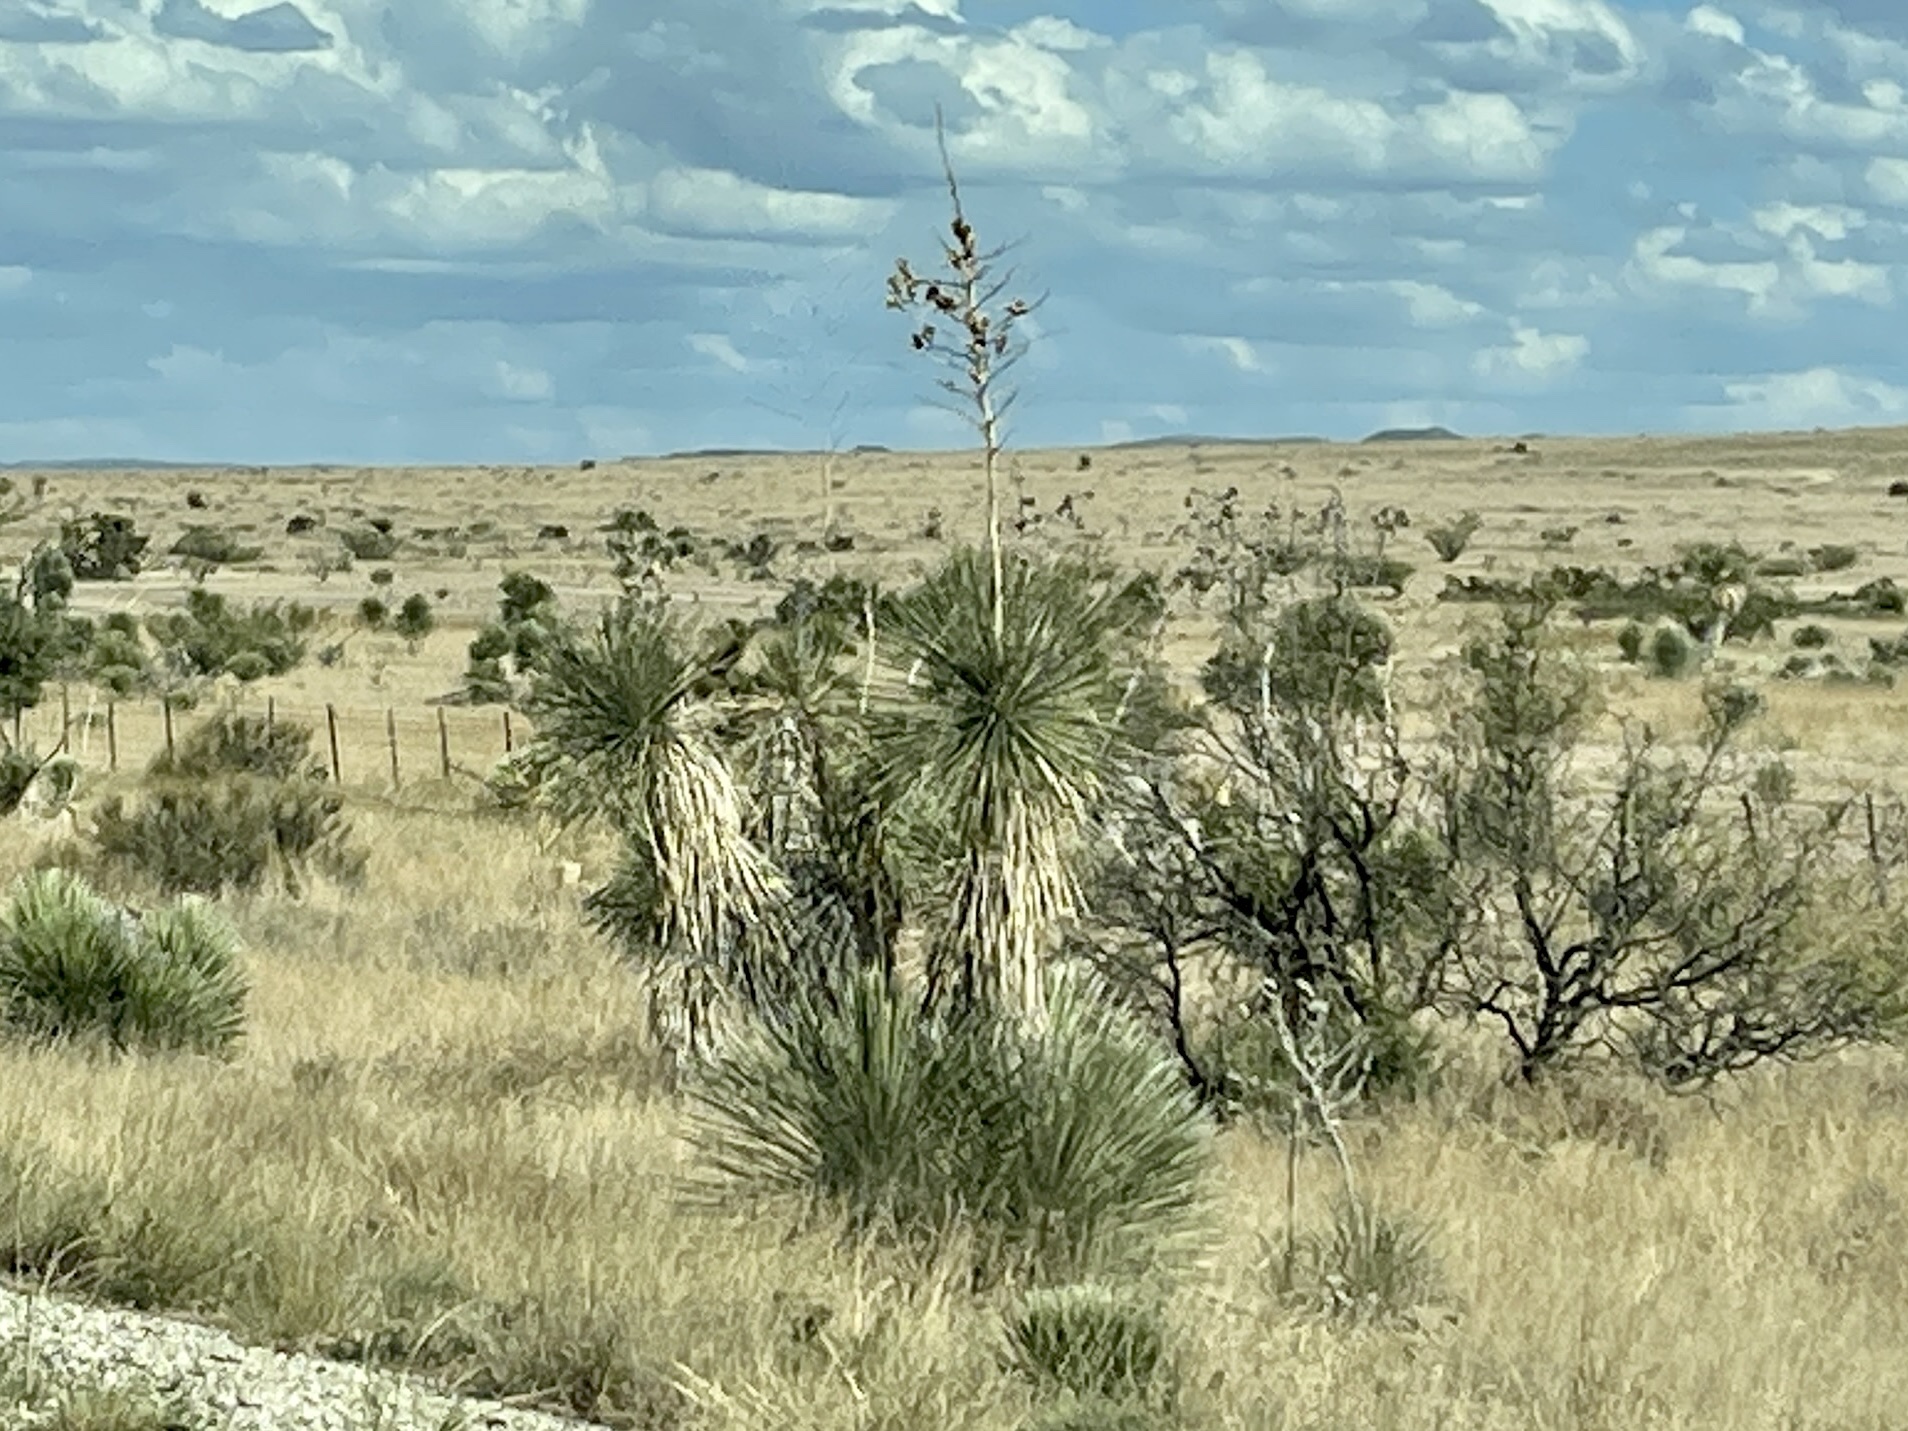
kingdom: Plantae
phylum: Tracheophyta
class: Liliopsida
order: Asparagales
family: Asparagaceae
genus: Yucca
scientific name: Yucca elata
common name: Palmella
